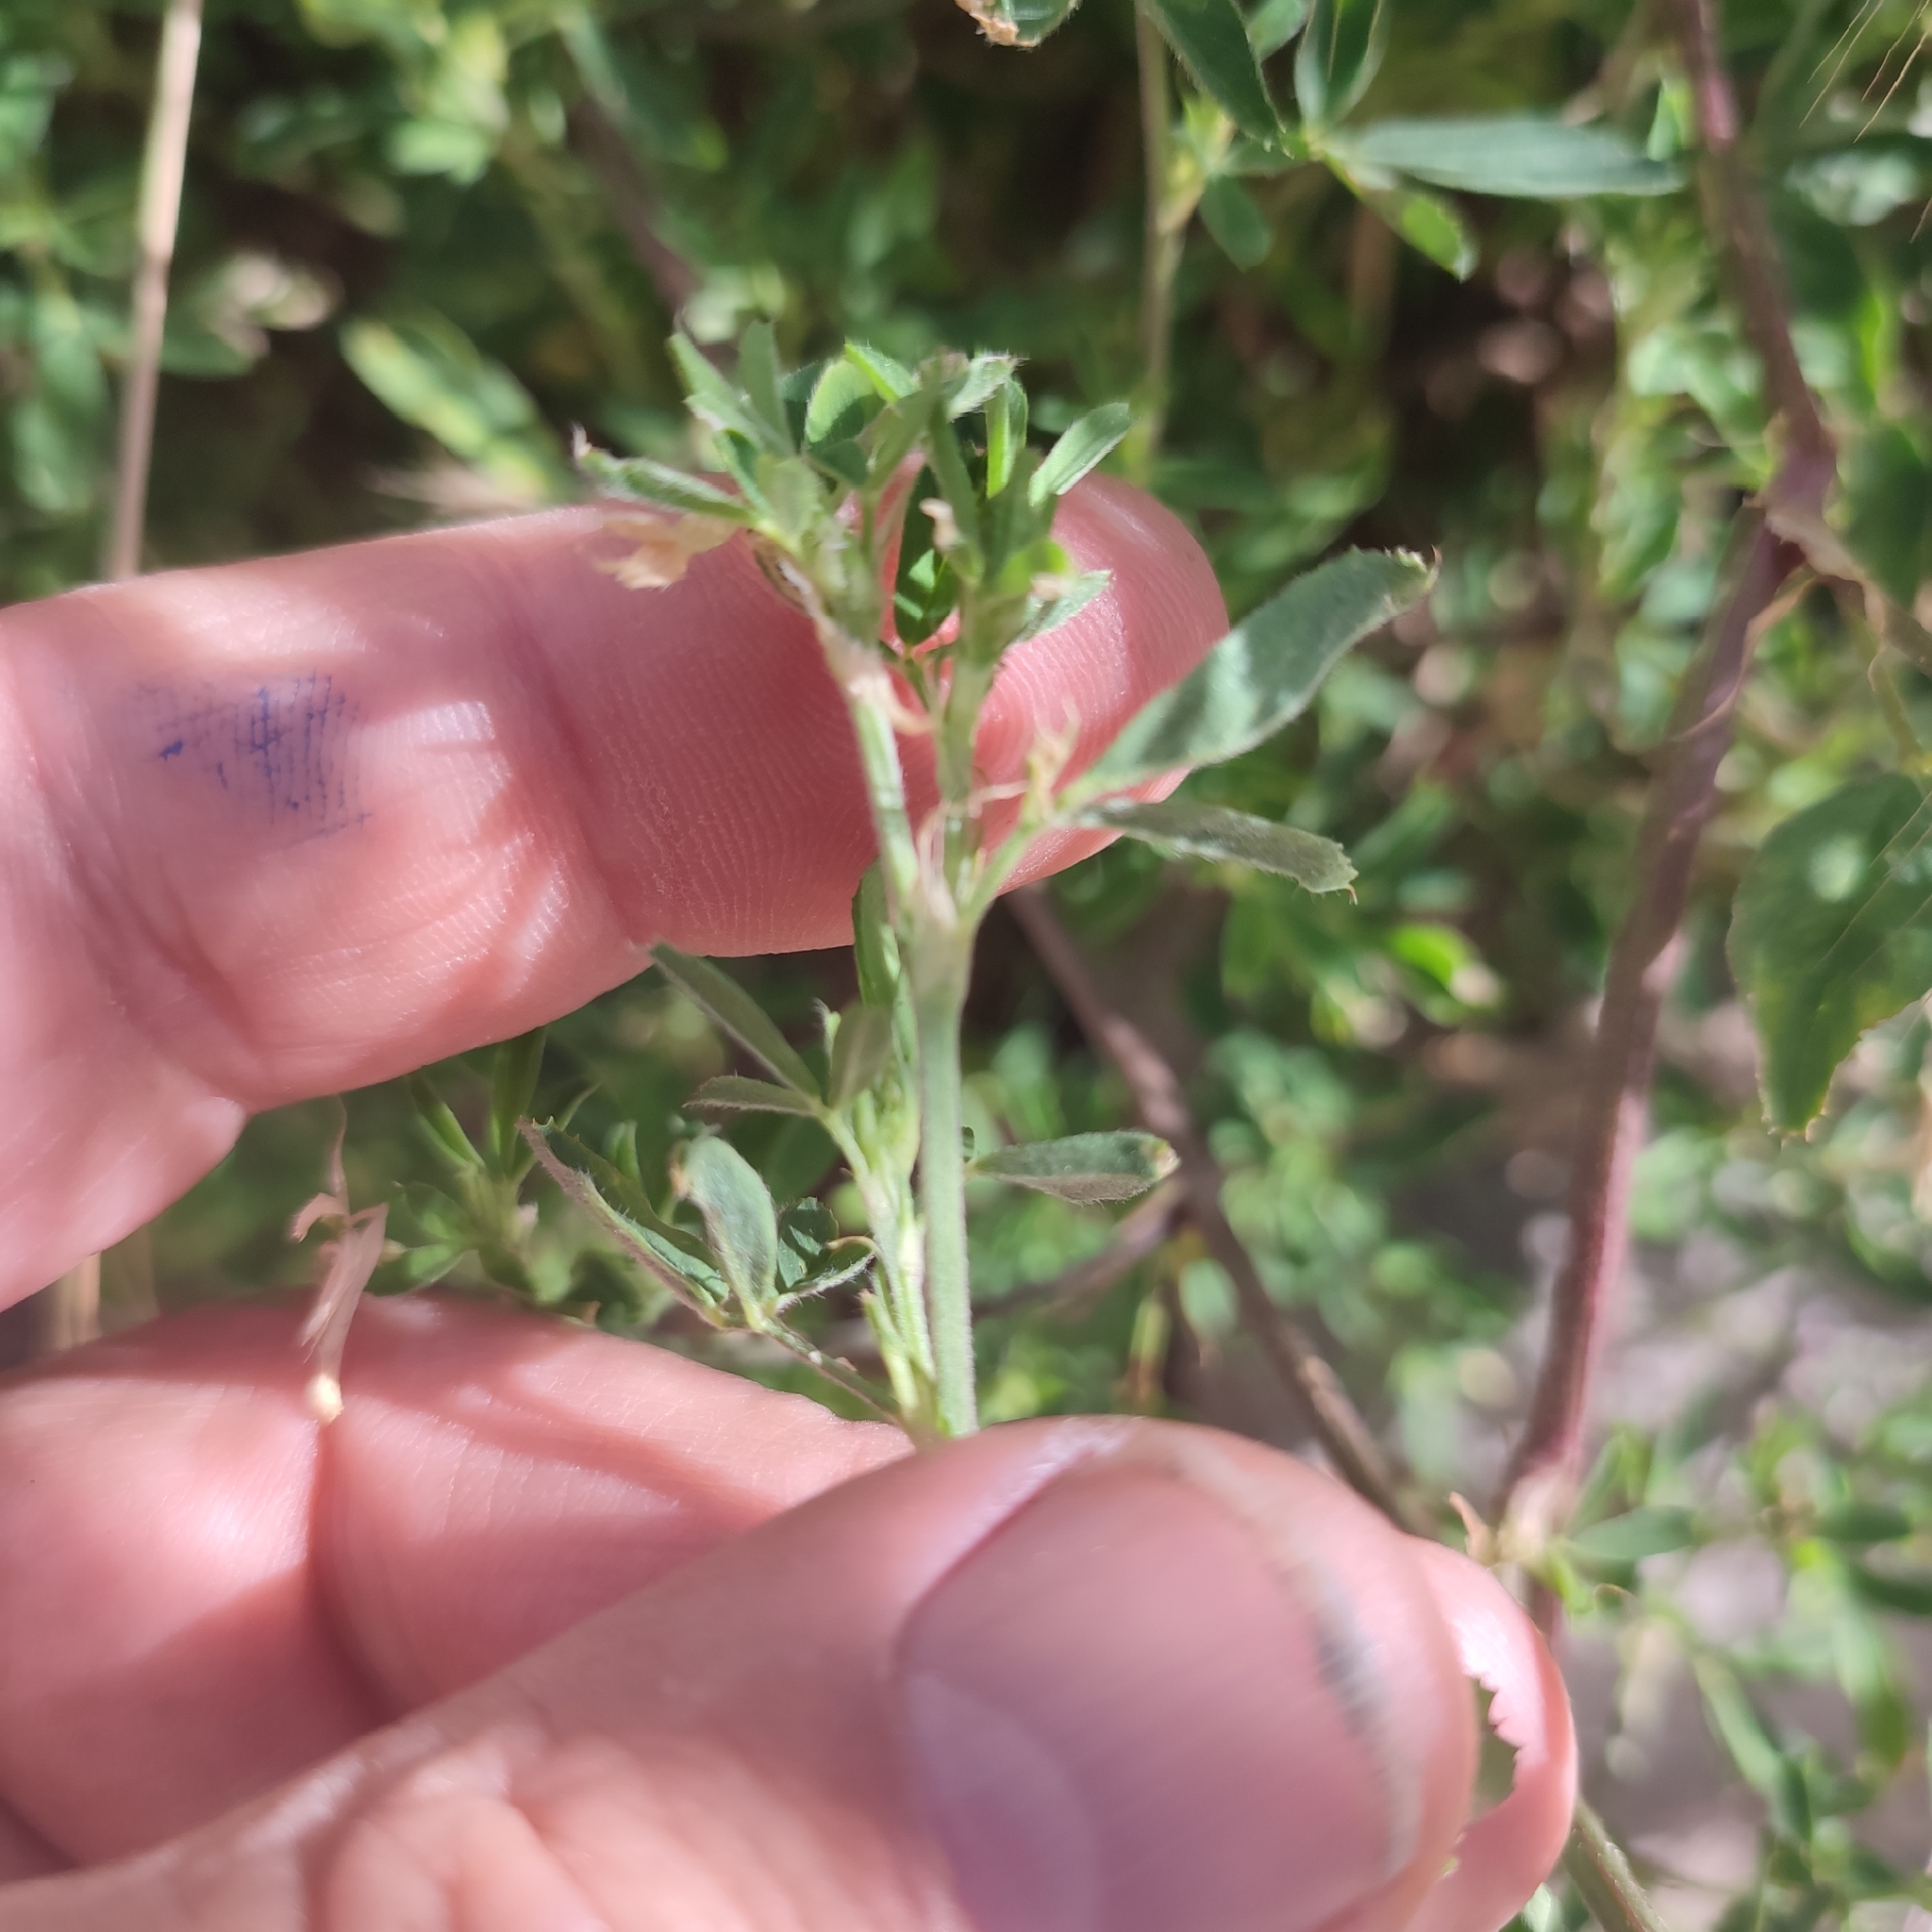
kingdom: Plantae
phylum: Tracheophyta
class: Magnoliopsida
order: Fabales
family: Fabaceae
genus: Medicago
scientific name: Medicago sativa
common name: Alfalfa
